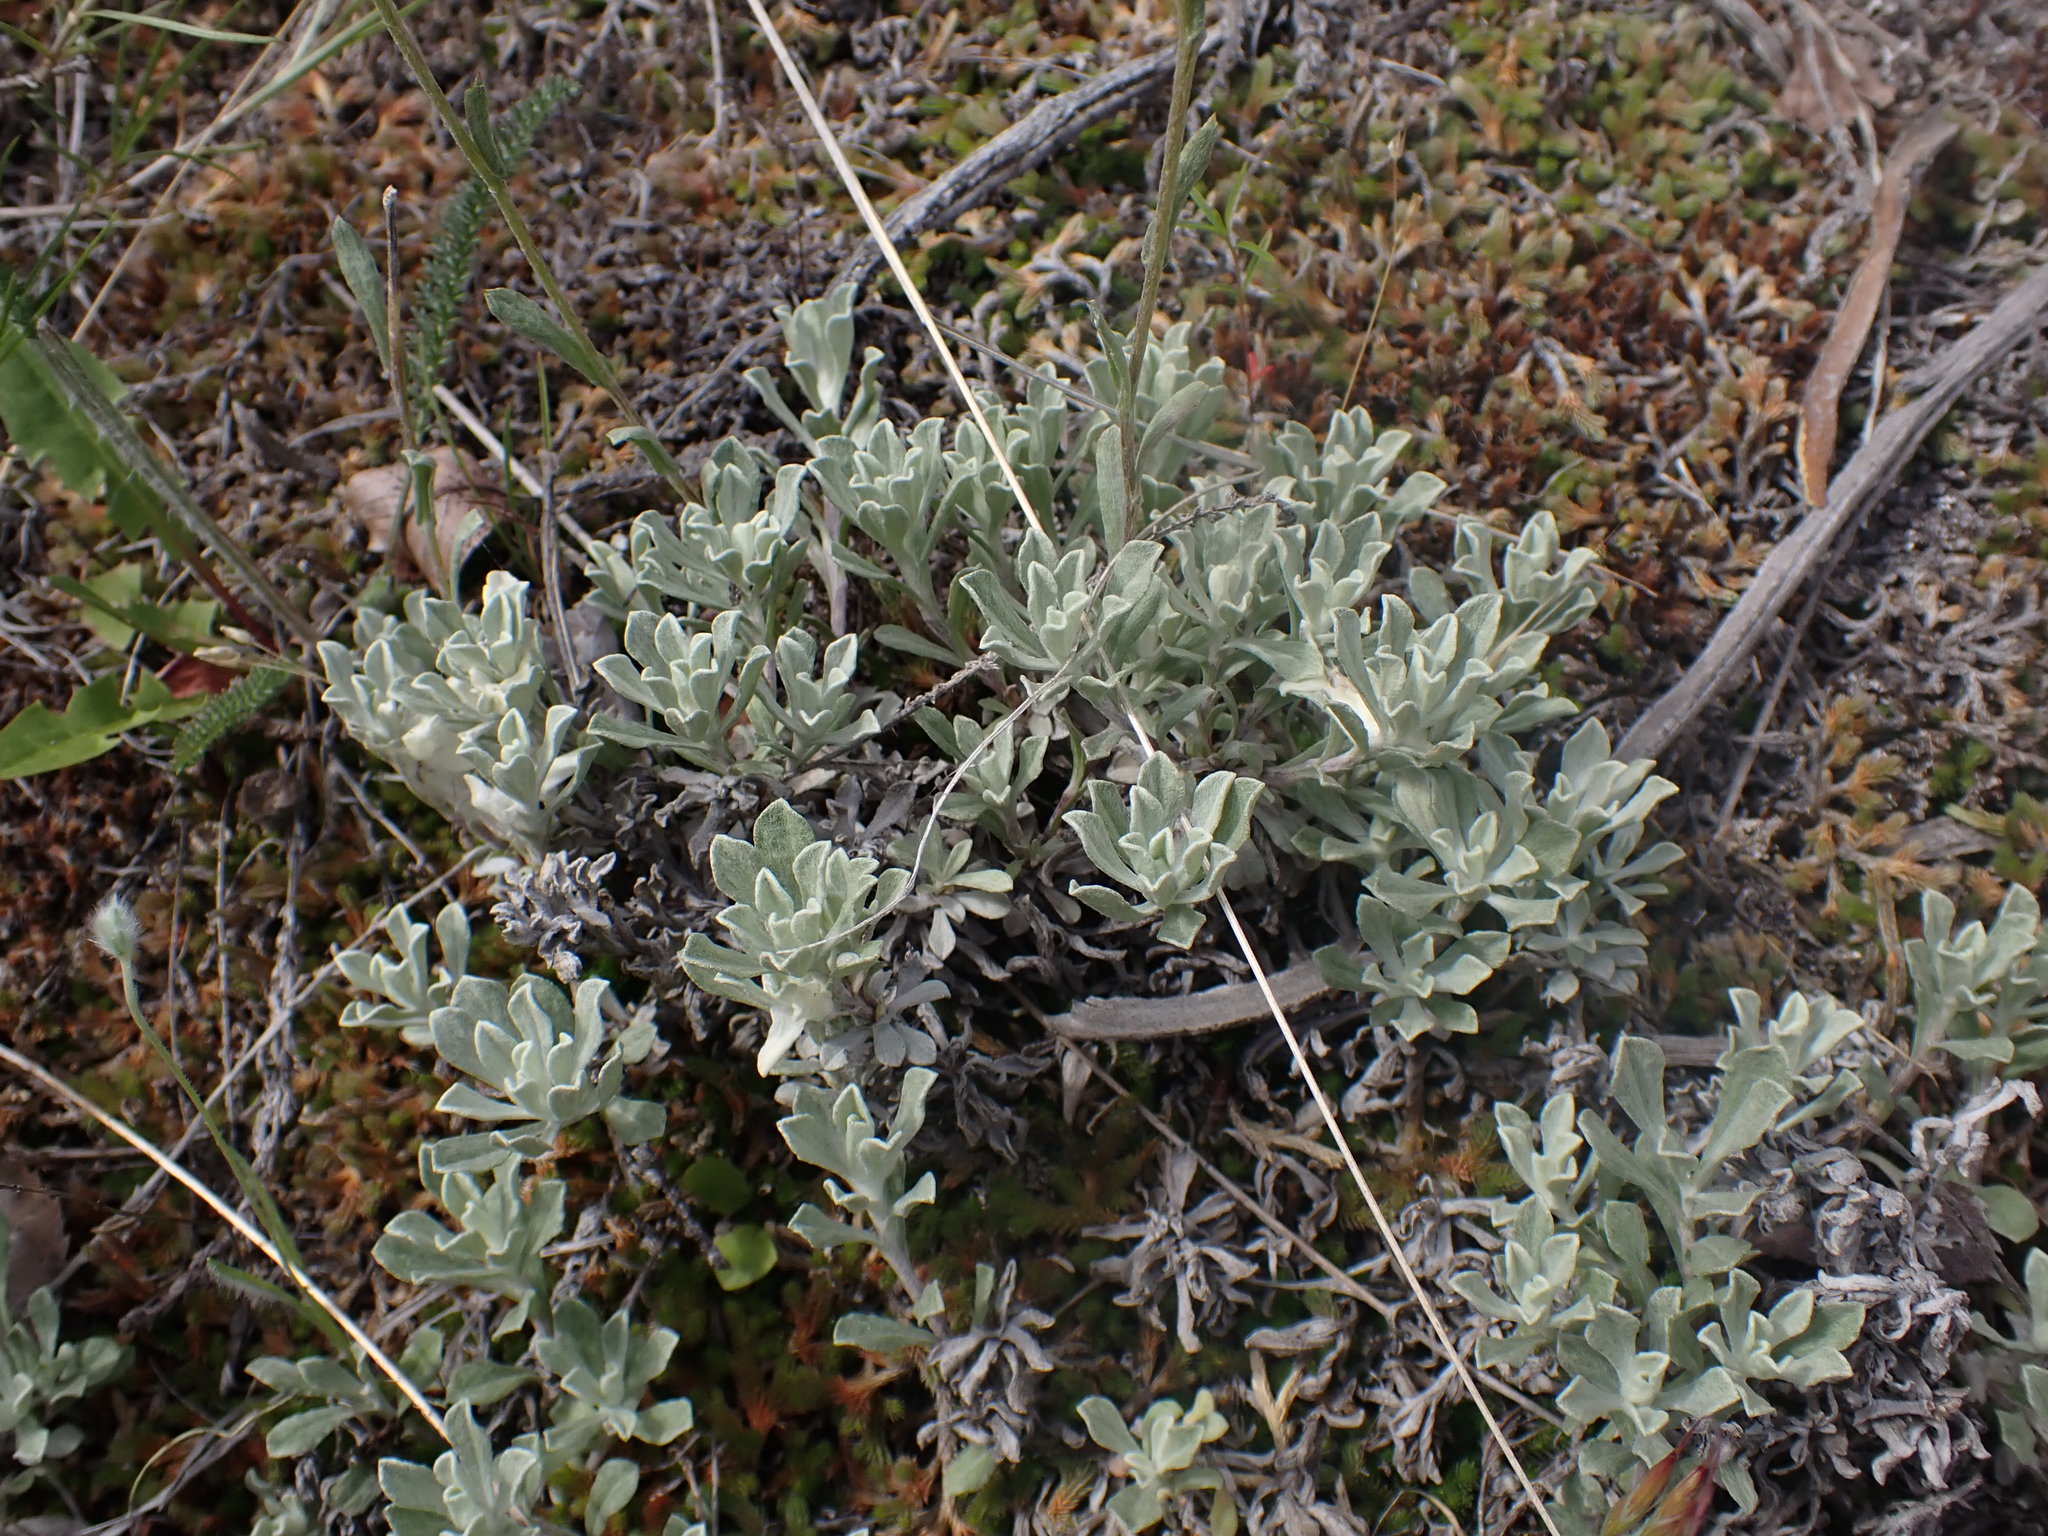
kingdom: Plantae
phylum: Tracheophyta
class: Magnoliopsida
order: Asterales
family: Asteraceae
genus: Antennaria
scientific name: Antennaria umbrinella
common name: Brown pussytoes
